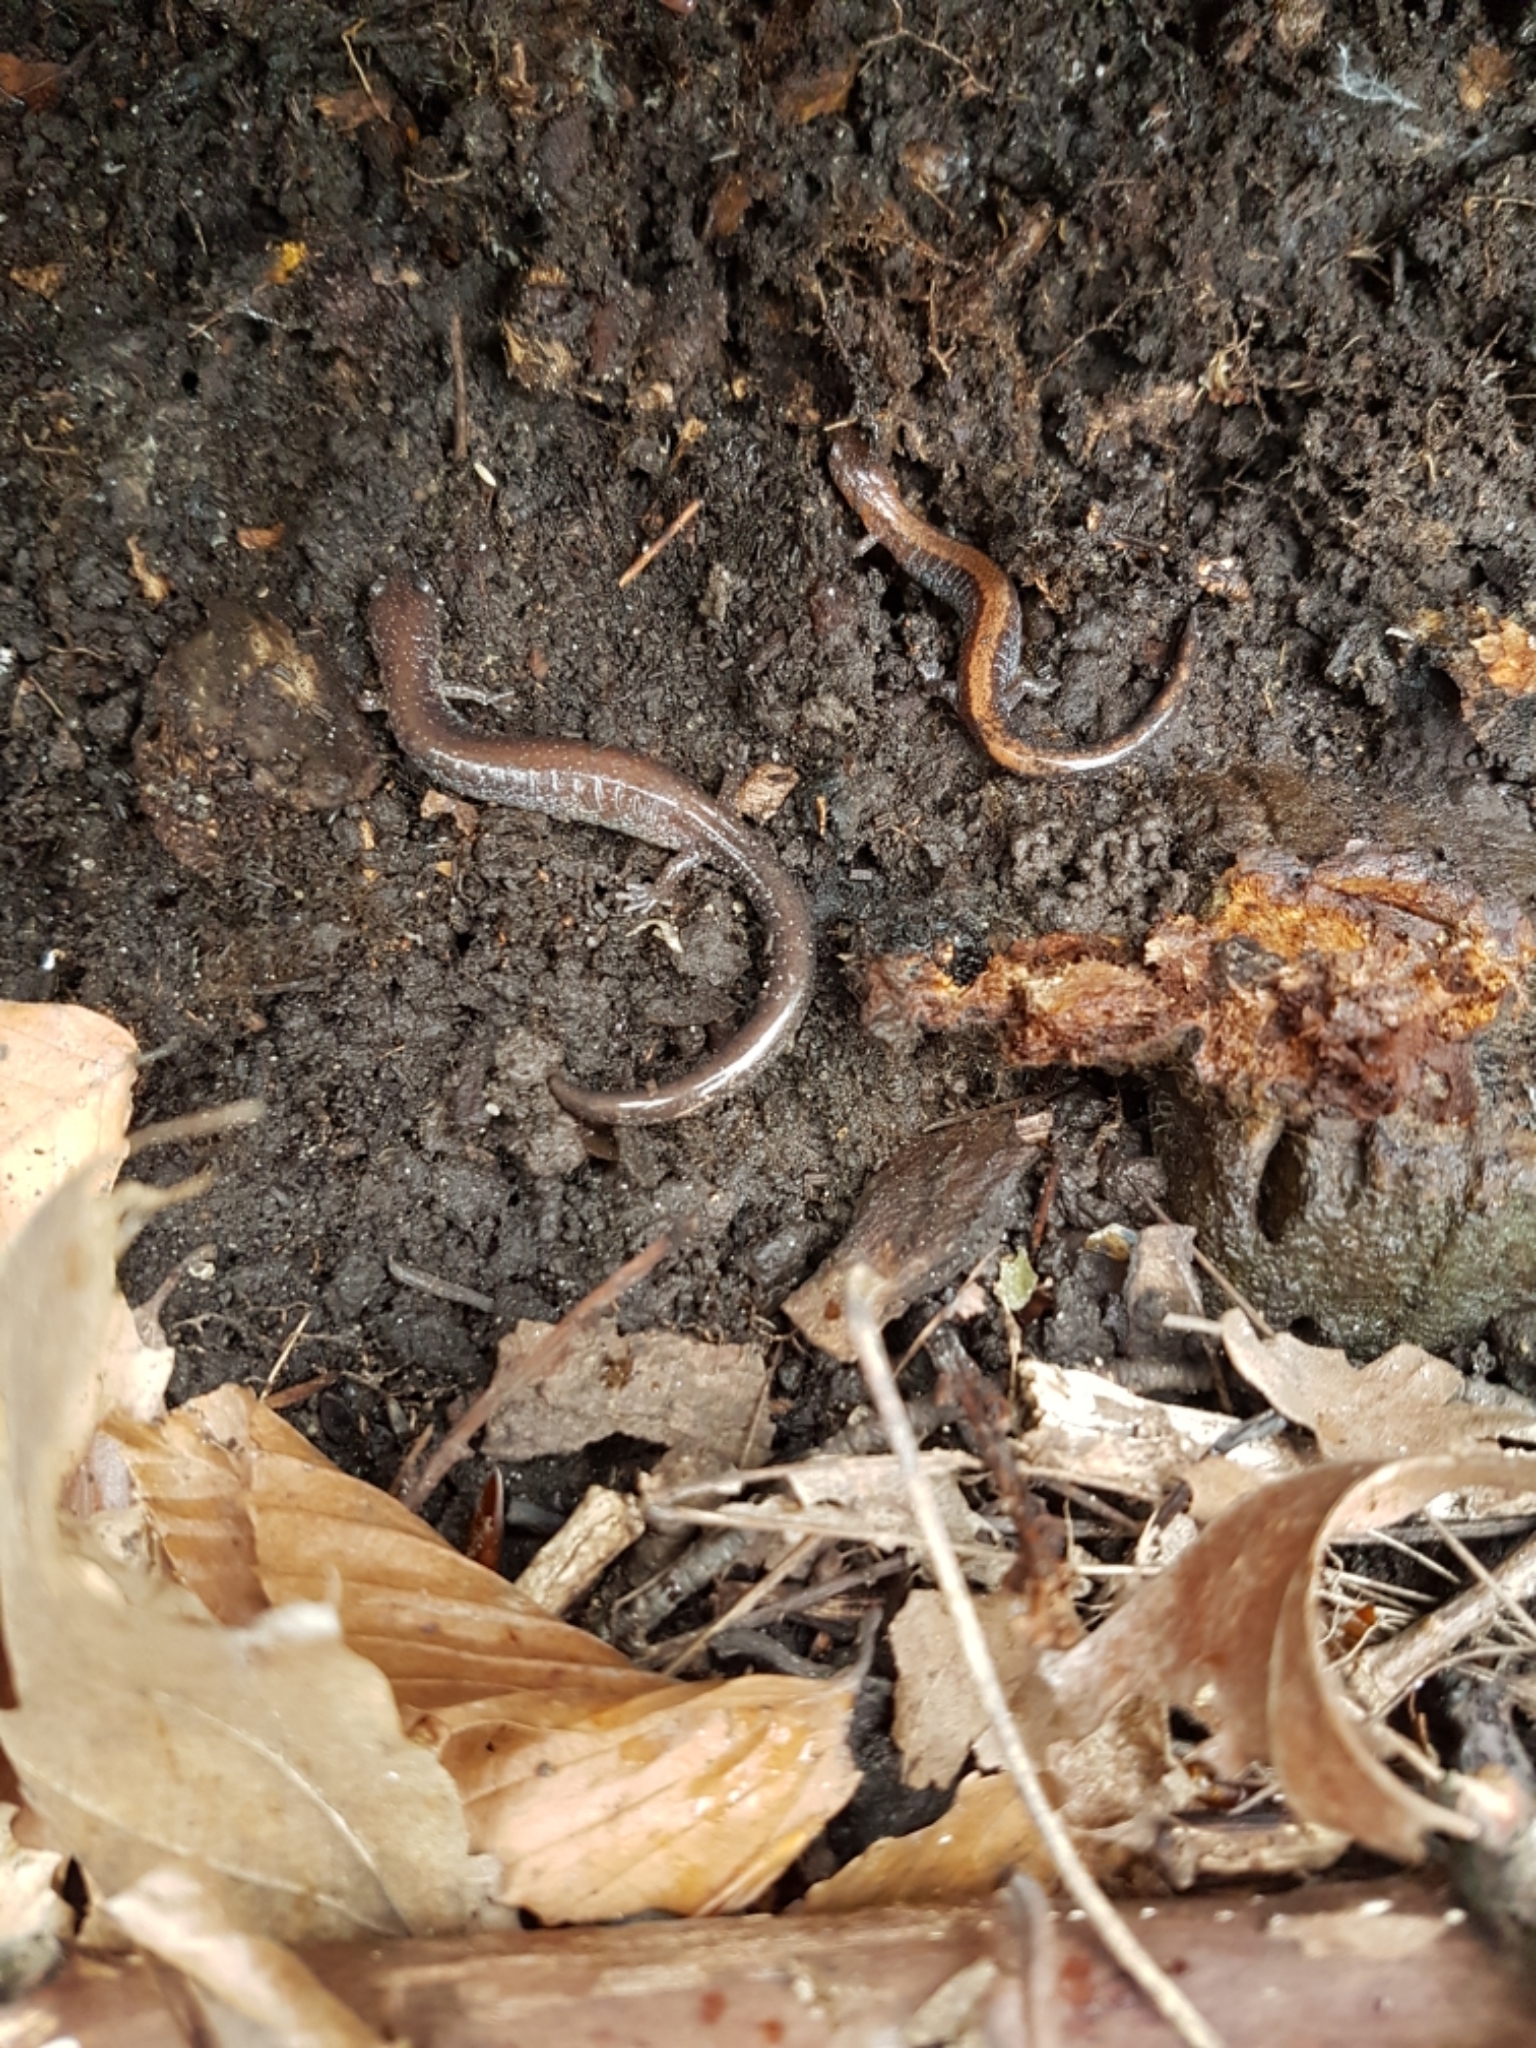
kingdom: Animalia
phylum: Chordata
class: Amphibia
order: Caudata
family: Plethodontidae
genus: Plethodon
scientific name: Plethodon cinereus
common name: Redback salamander
